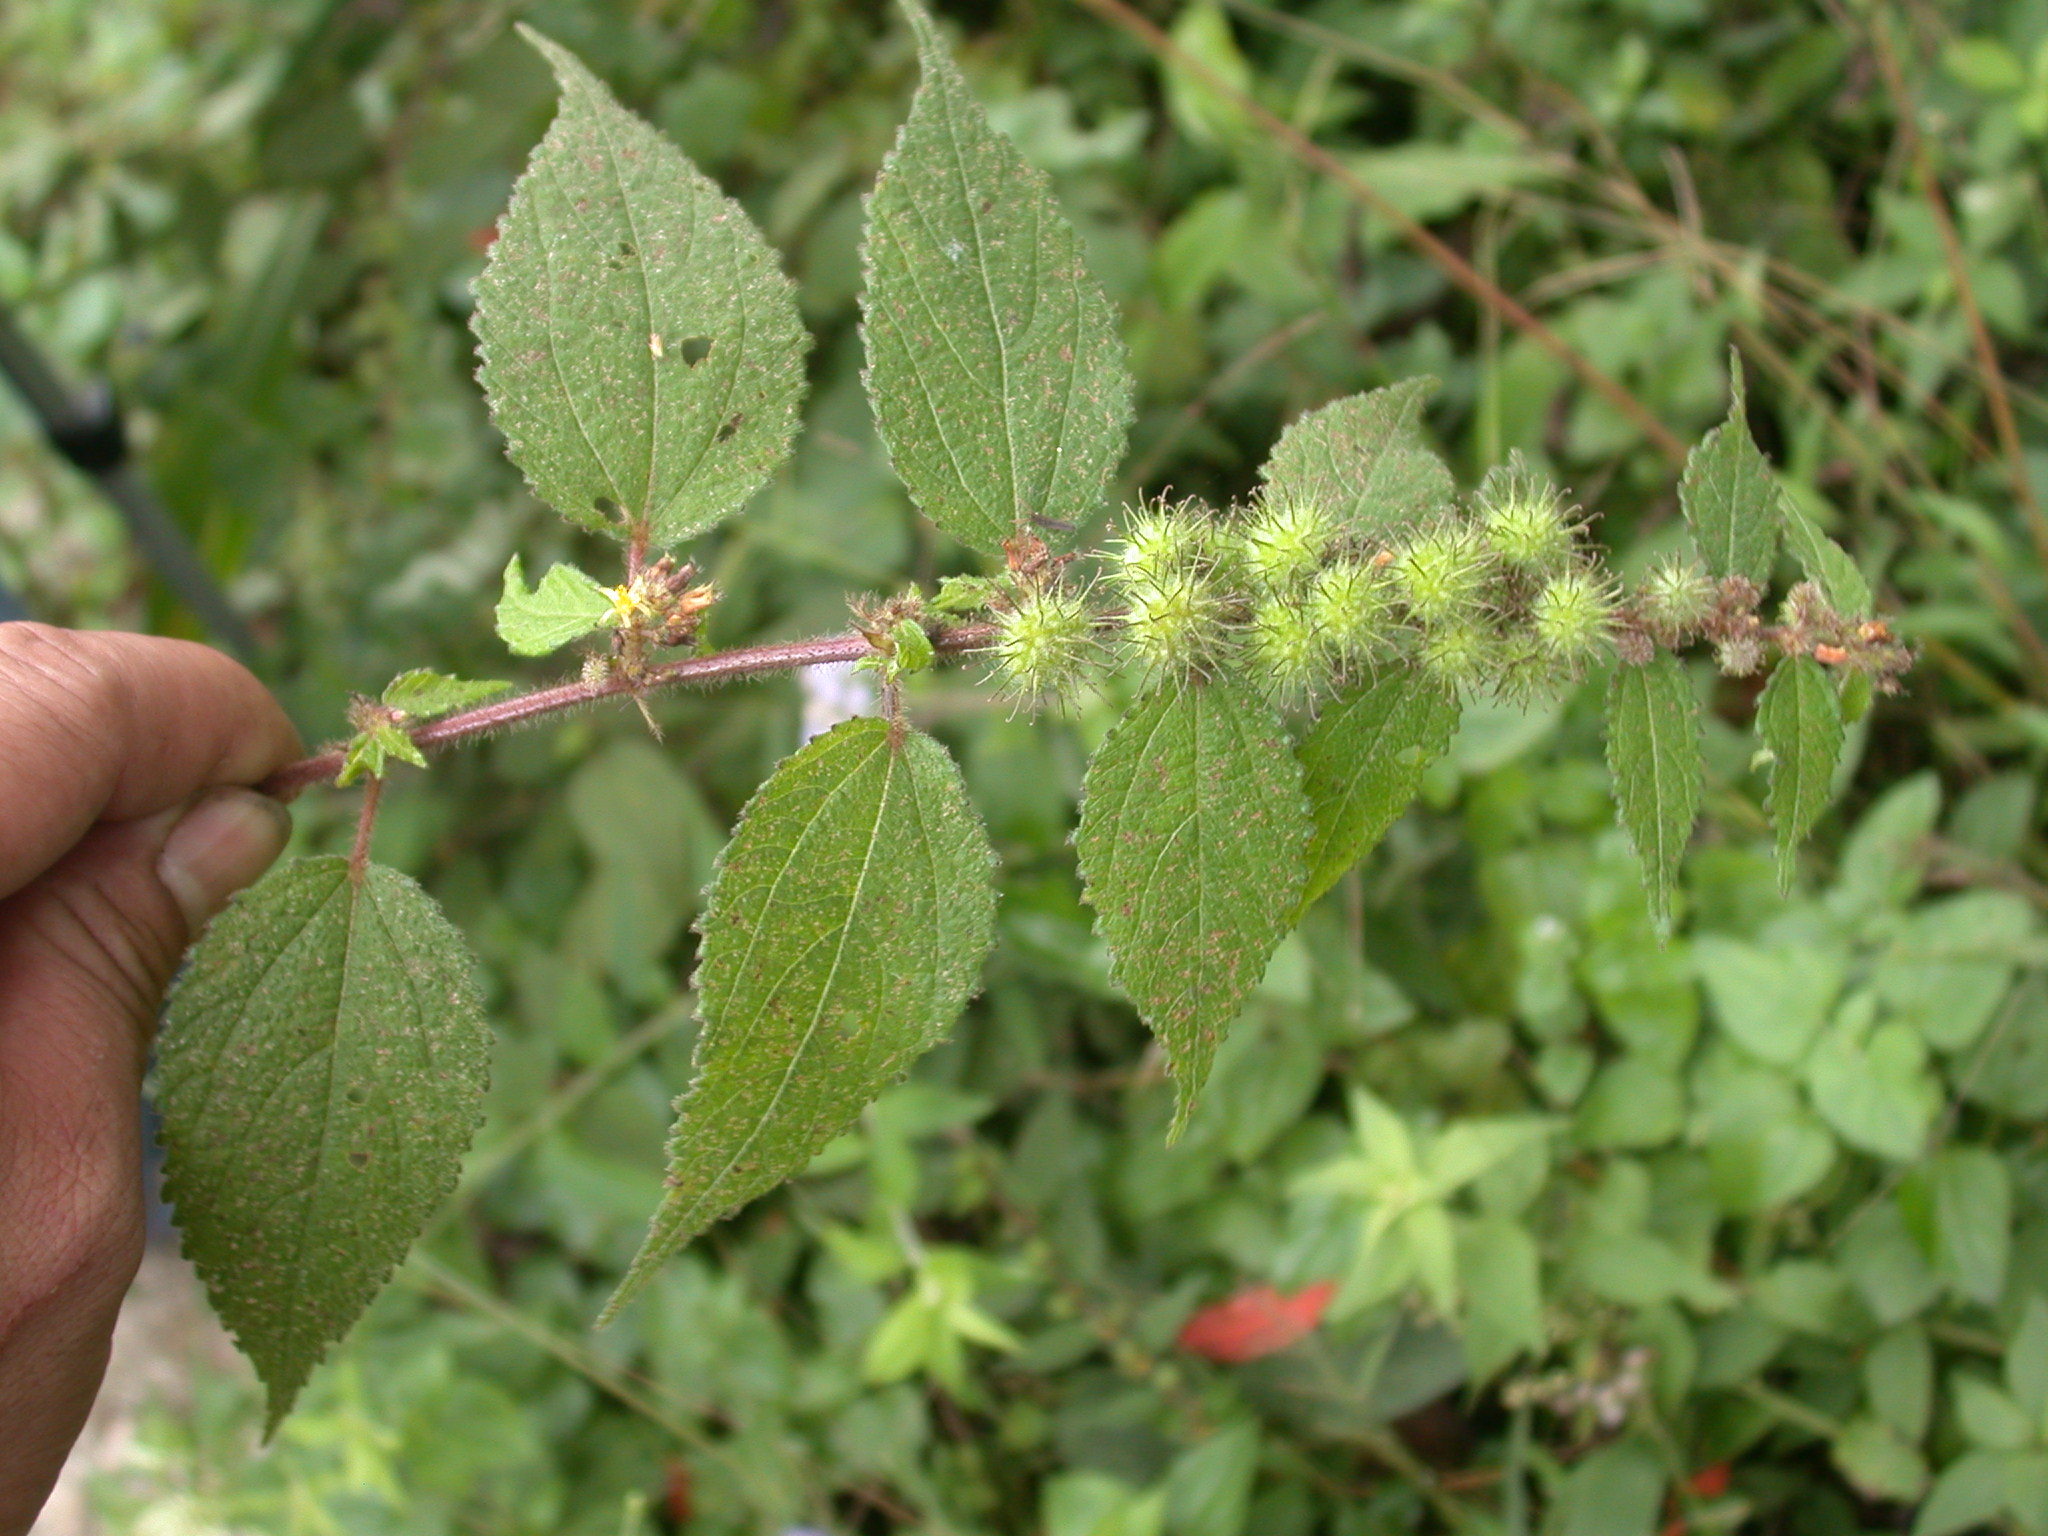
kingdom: Plantae
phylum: Tracheophyta
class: Magnoliopsida
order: Malvales
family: Malvaceae
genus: Triumfetta
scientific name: Triumfetta pilosa
